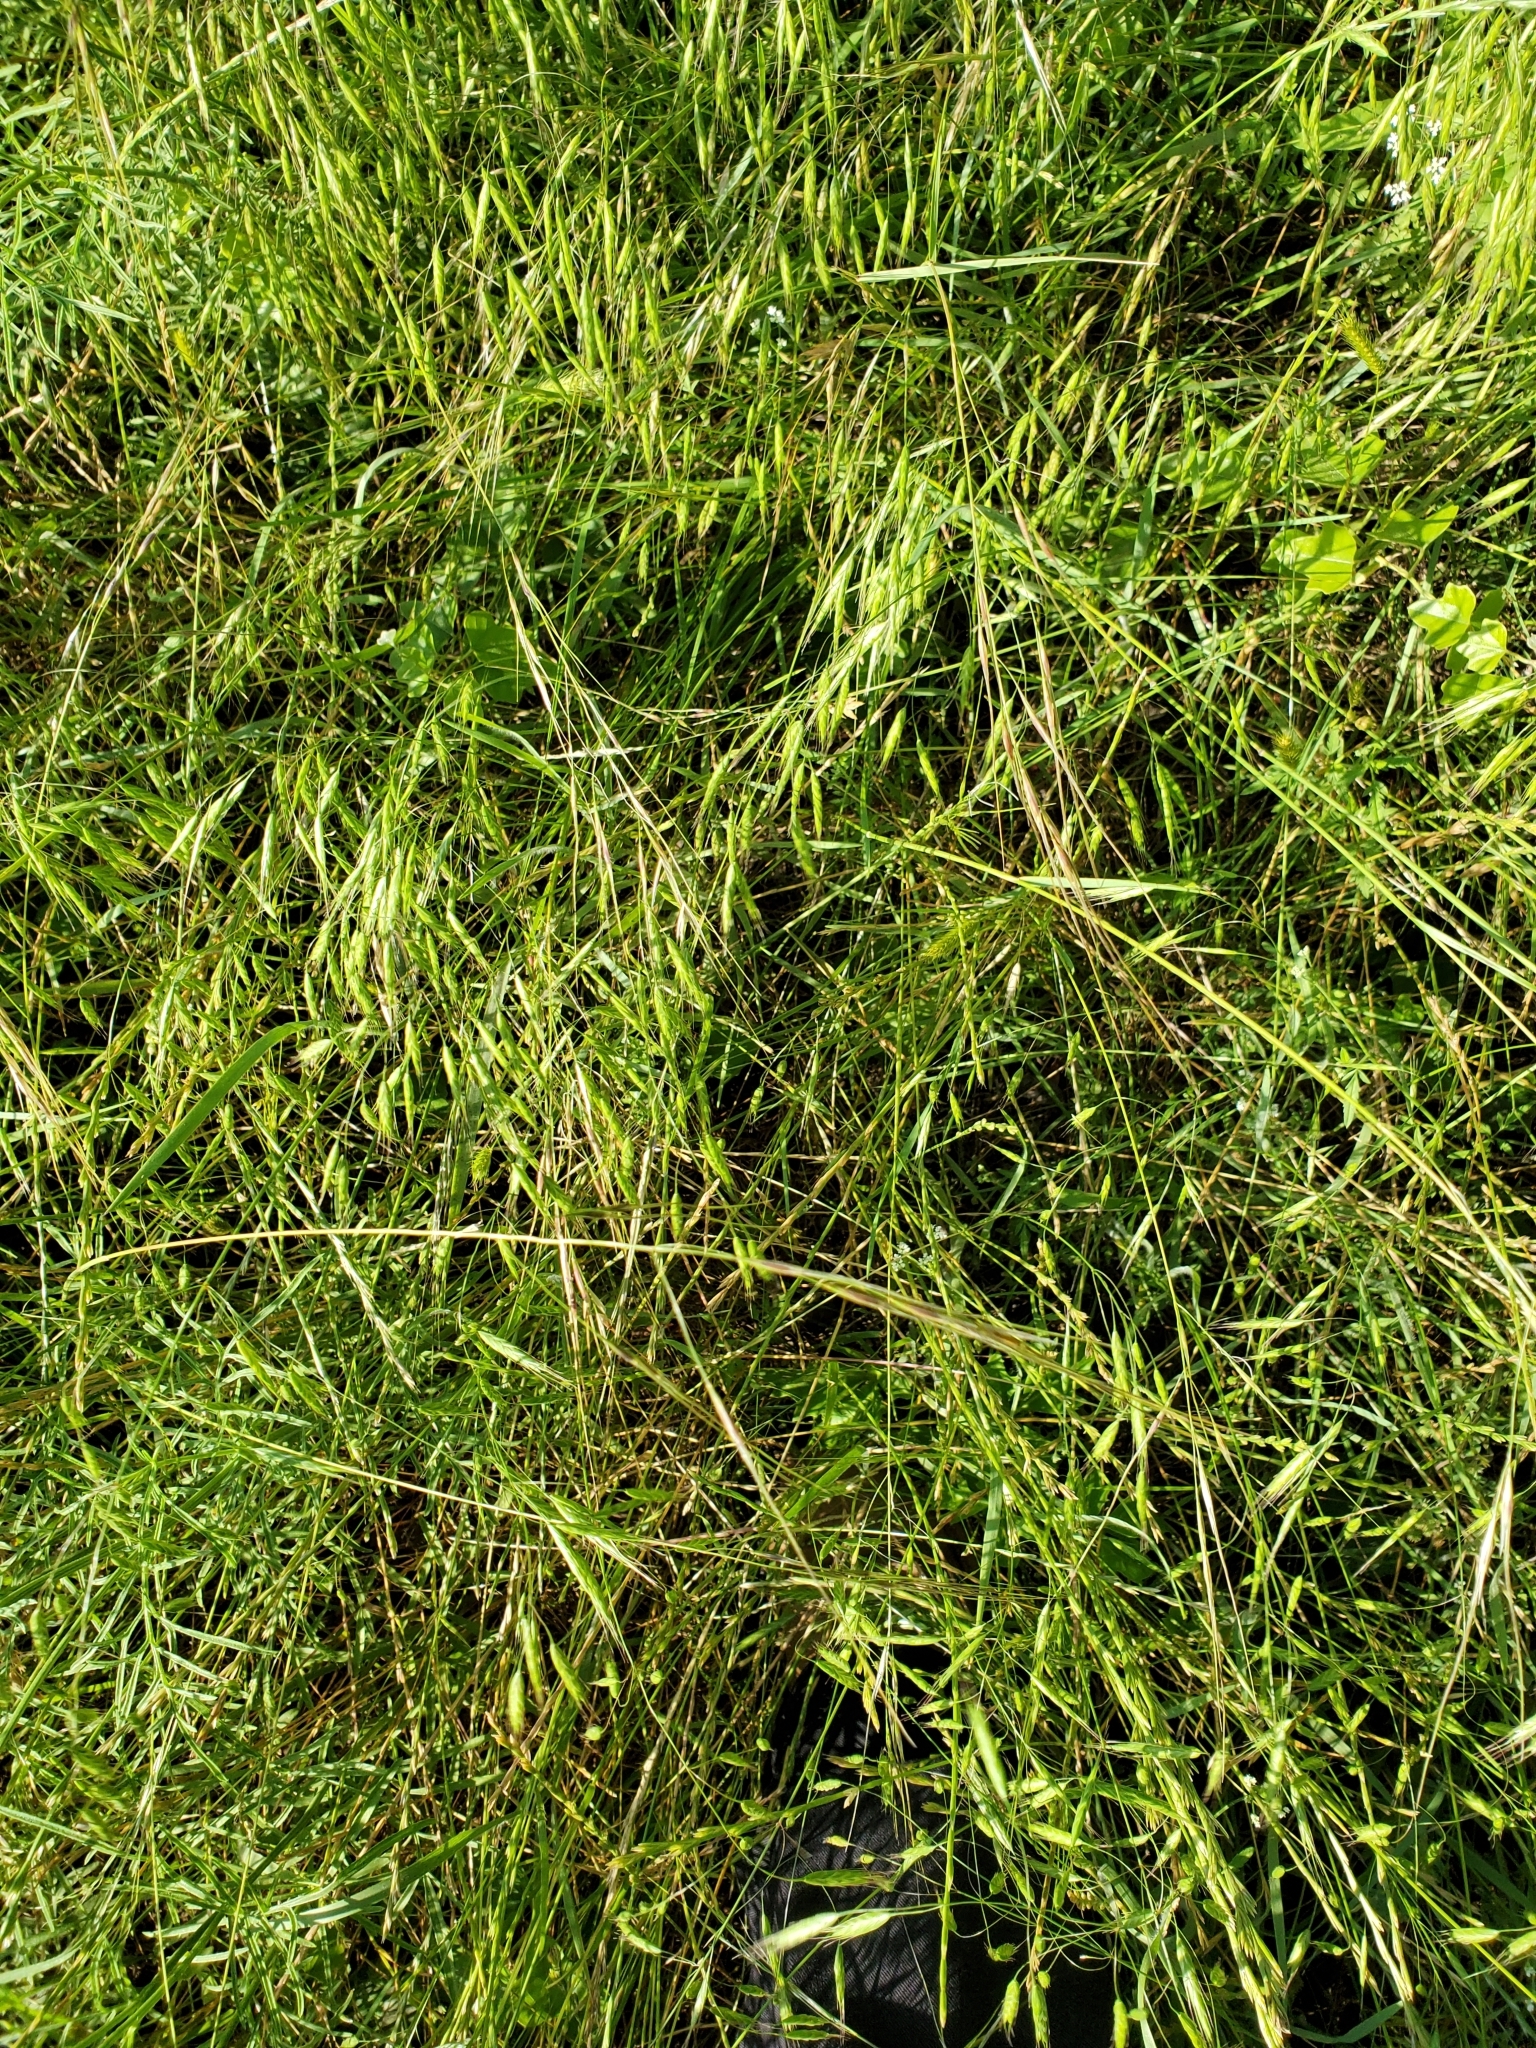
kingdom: Plantae
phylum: Tracheophyta
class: Liliopsida
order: Poales
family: Poaceae
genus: Nassella
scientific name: Nassella leucotricha
